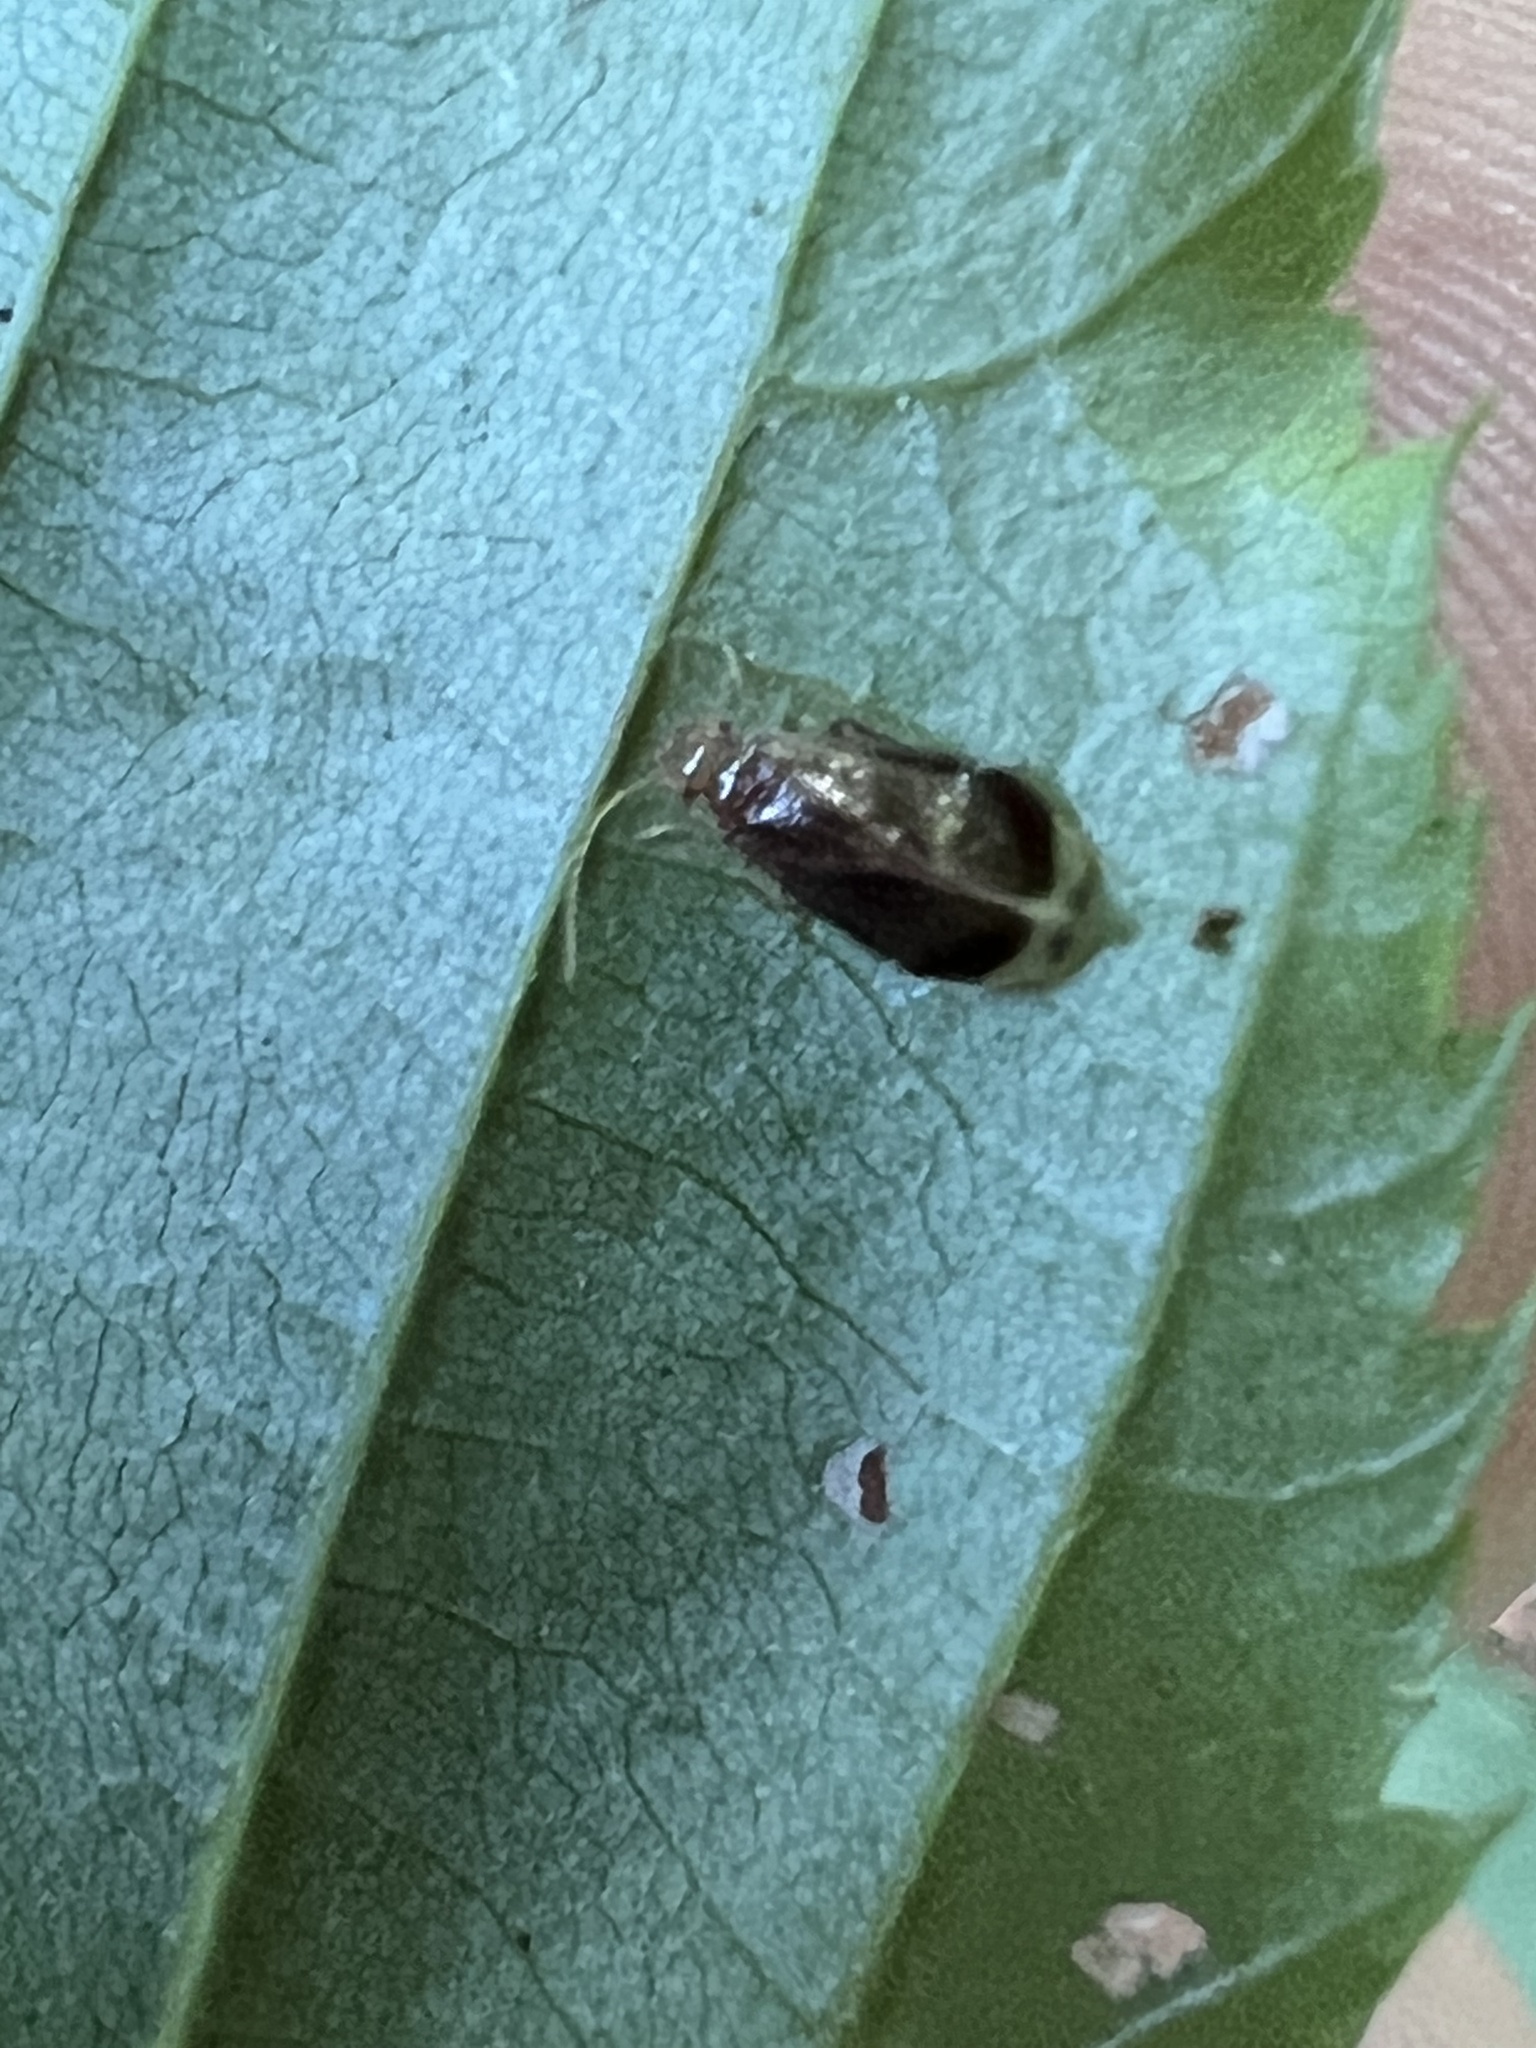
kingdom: Animalia
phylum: Arthropoda
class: Insecta
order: Psocodea
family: Amphipsocidae
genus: Polypsocus
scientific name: Polypsocus corruptus
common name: Corrupt barklouse
